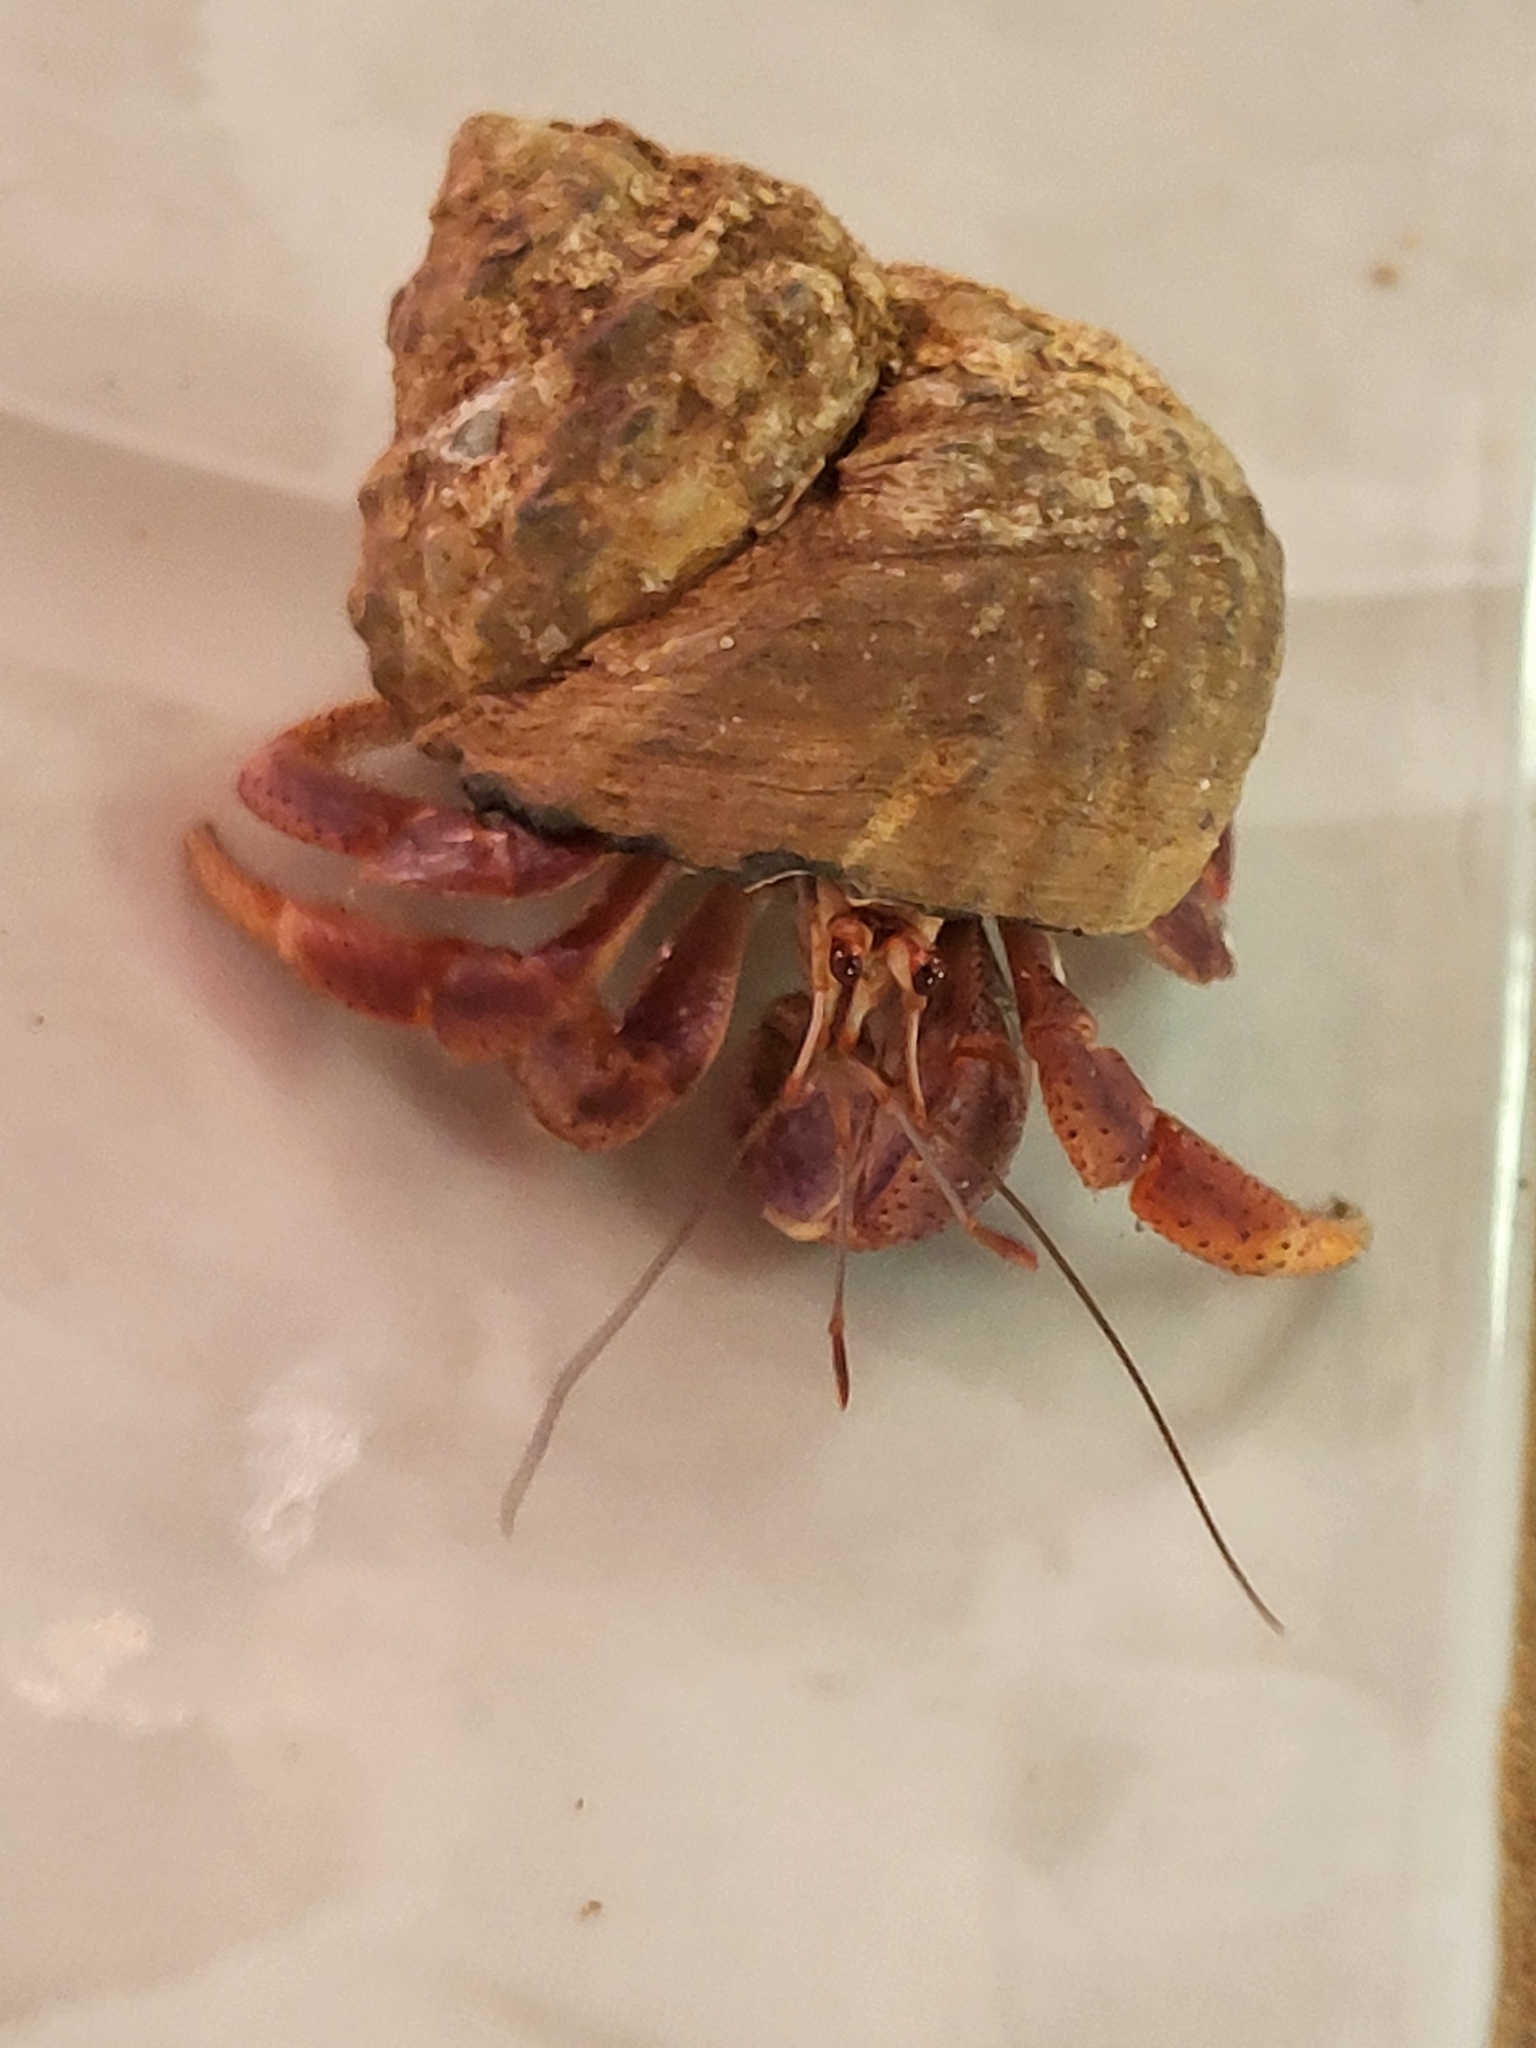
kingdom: Animalia
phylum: Arthropoda
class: Malacostraca
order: Decapoda
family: Coenobitidae
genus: Coenobita
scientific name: Coenobita clypeatus
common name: Caribbean hermit crab
